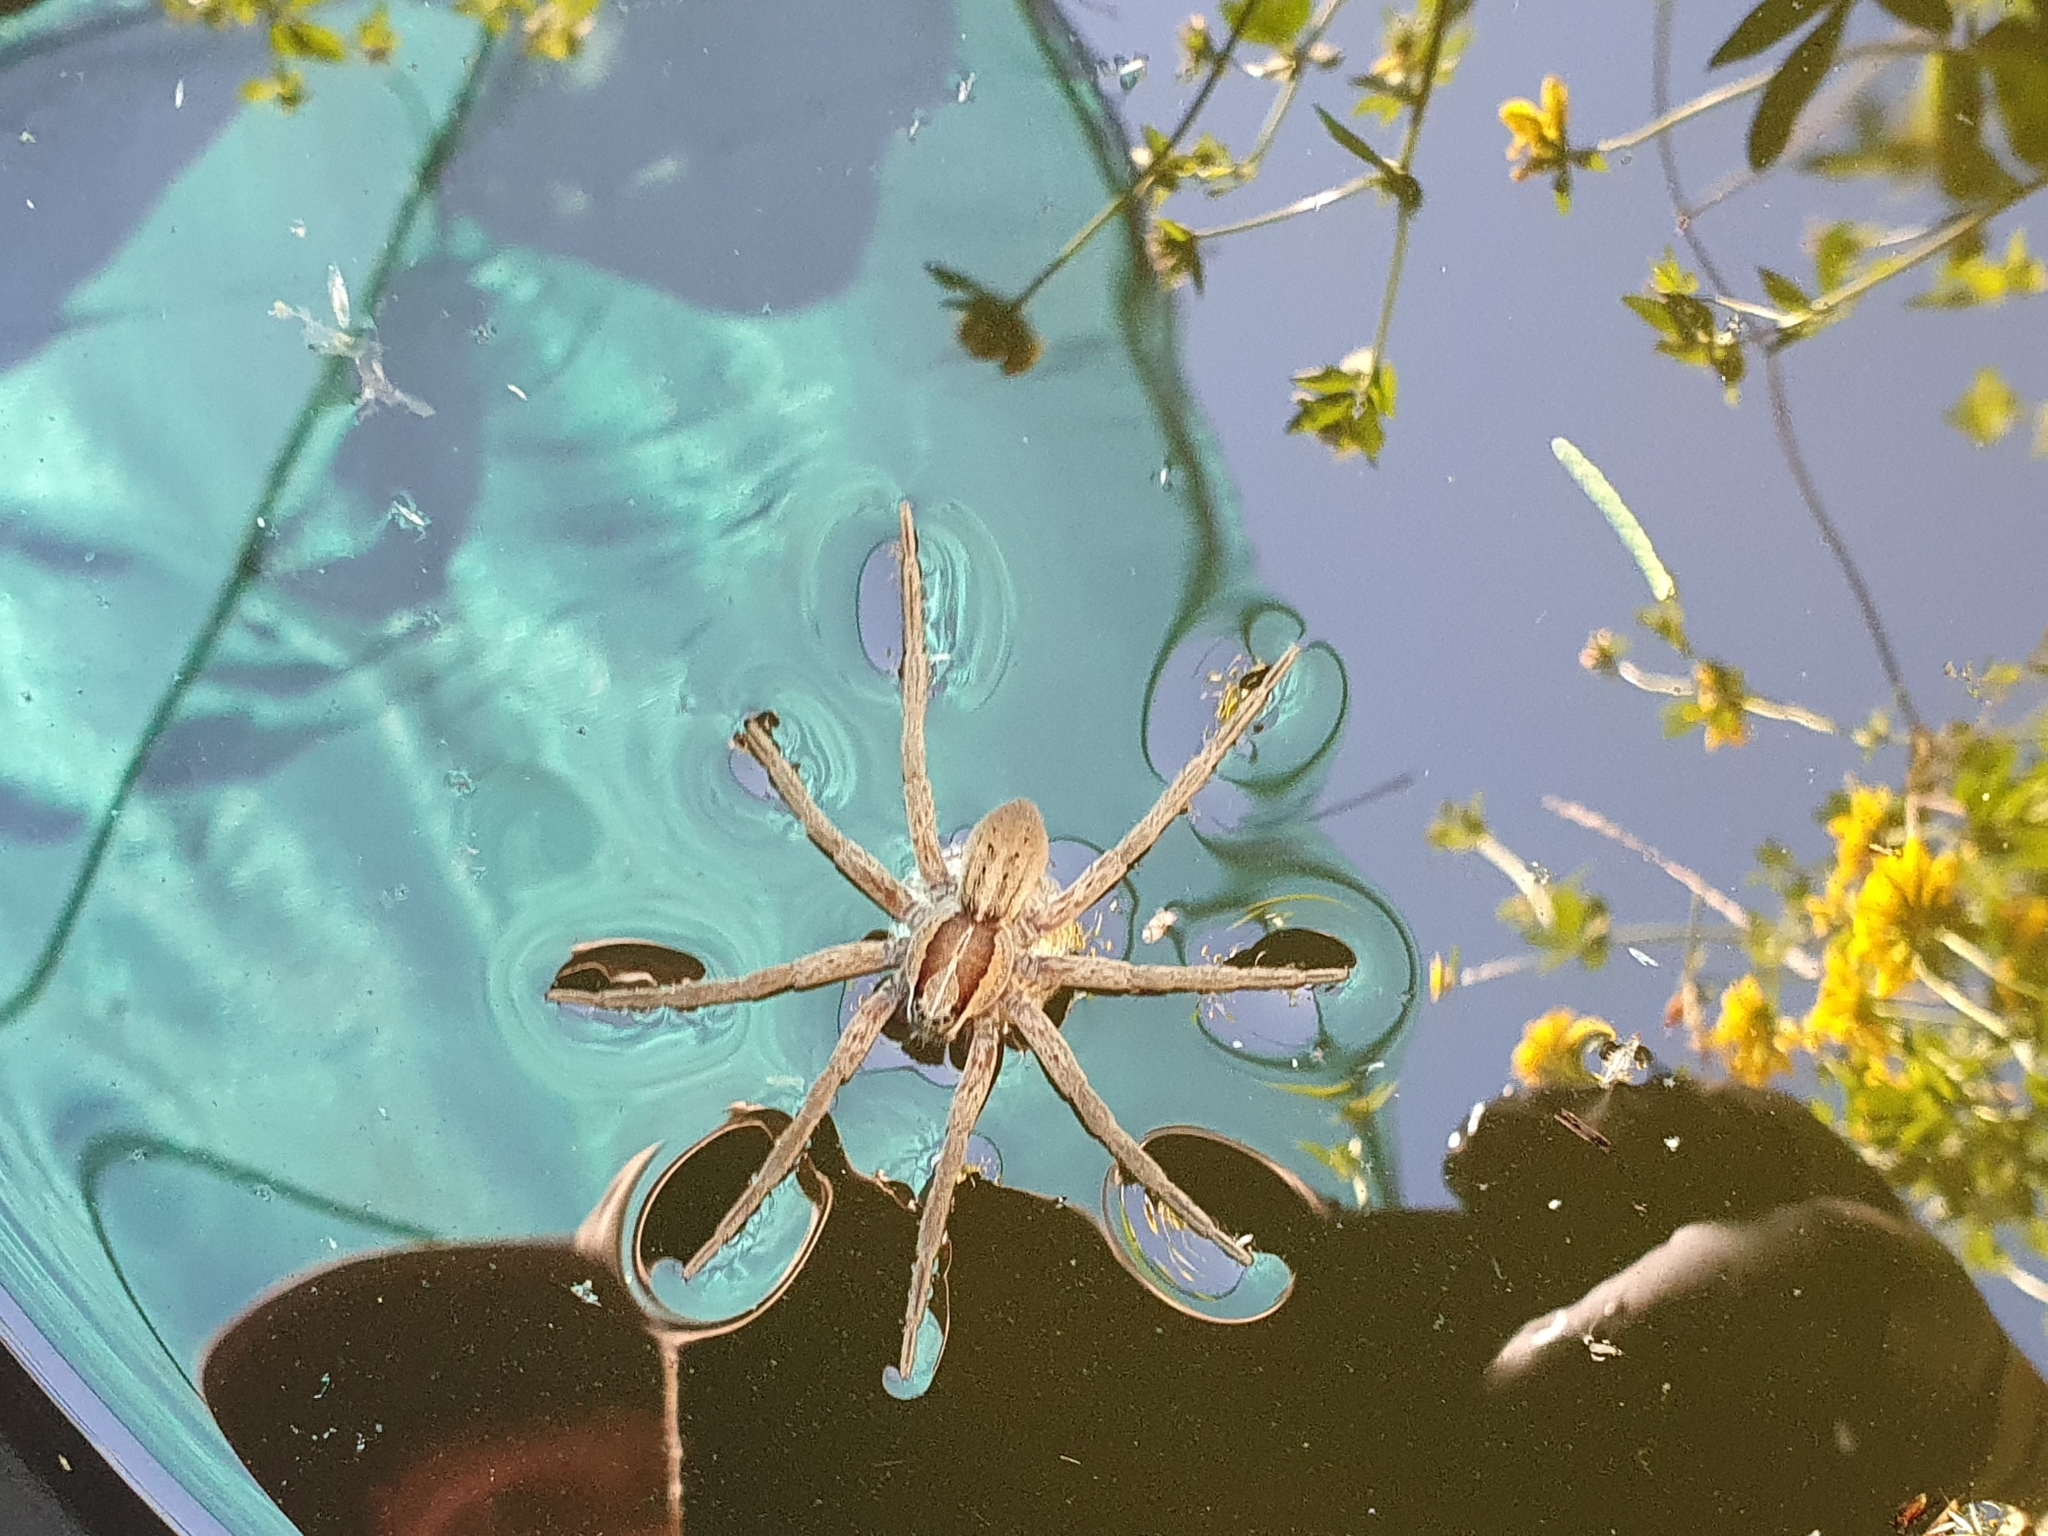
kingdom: Animalia
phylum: Arthropoda
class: Arachnida
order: Araneae
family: Pisauridae
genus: Dolomedes
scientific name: Dolomedes minor
